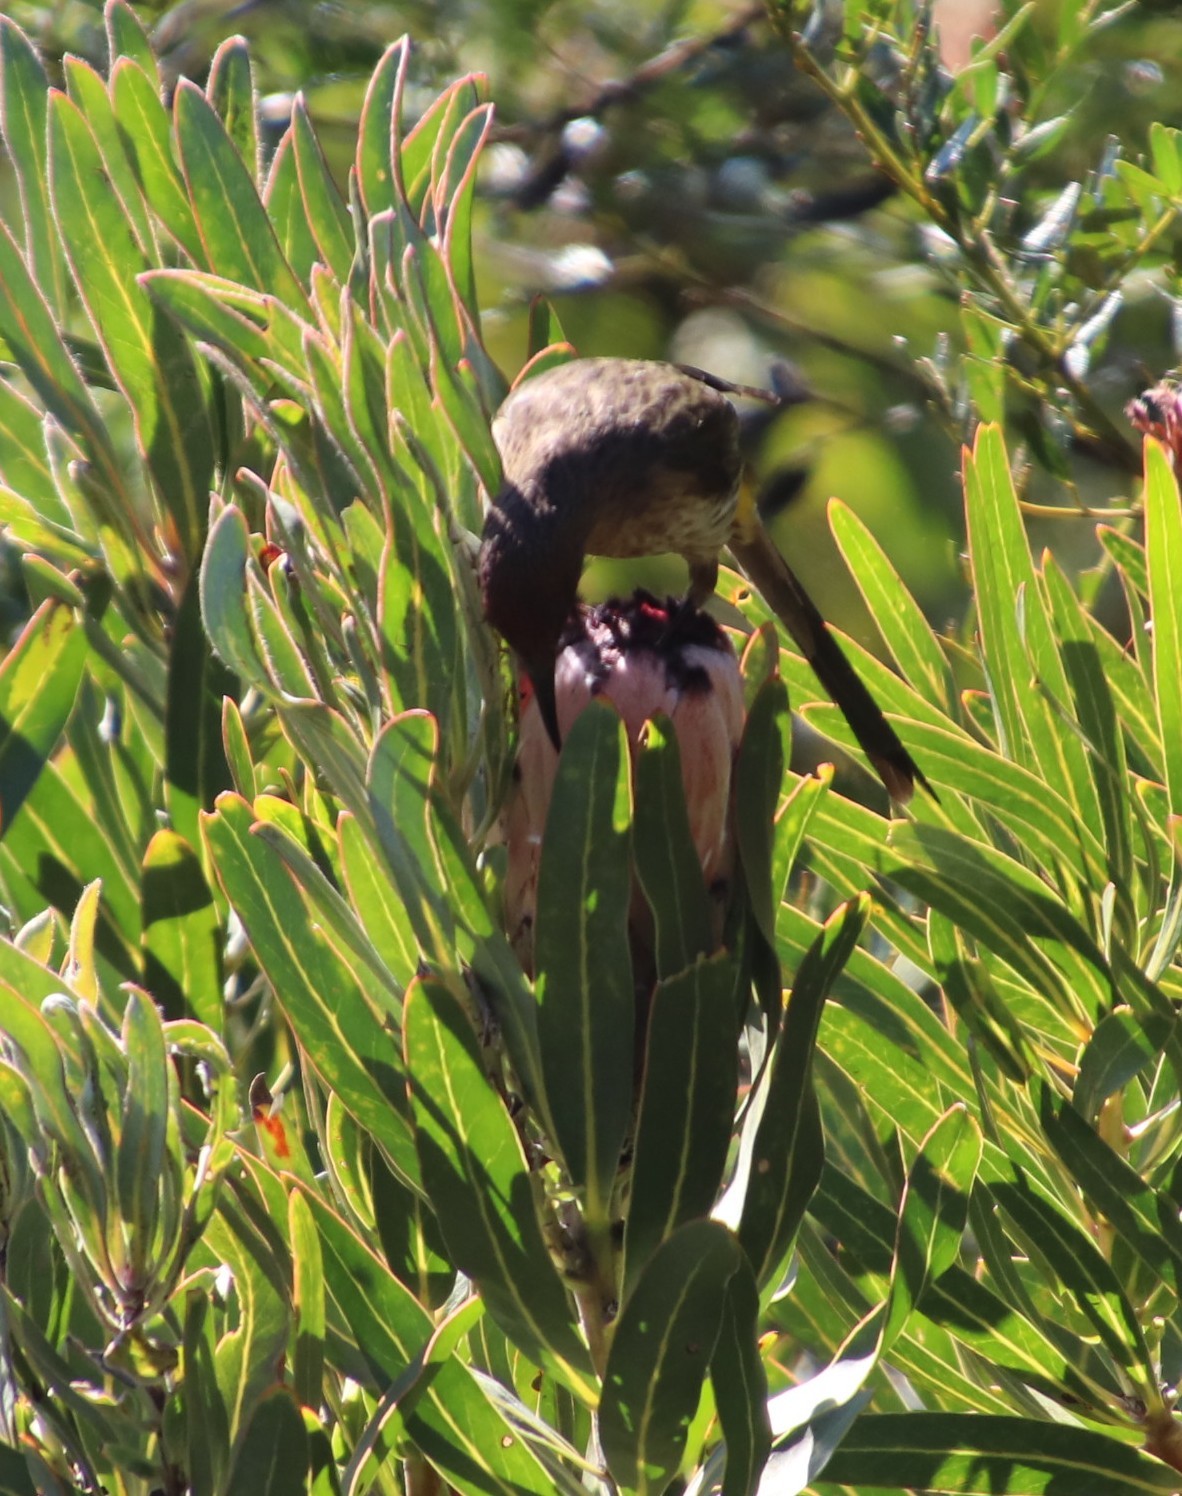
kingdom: Animalia
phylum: Chordata
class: Aves
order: Passeriformes
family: Promeropidae
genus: Promerops
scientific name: Promerops cafer
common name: Cape sugarbird
